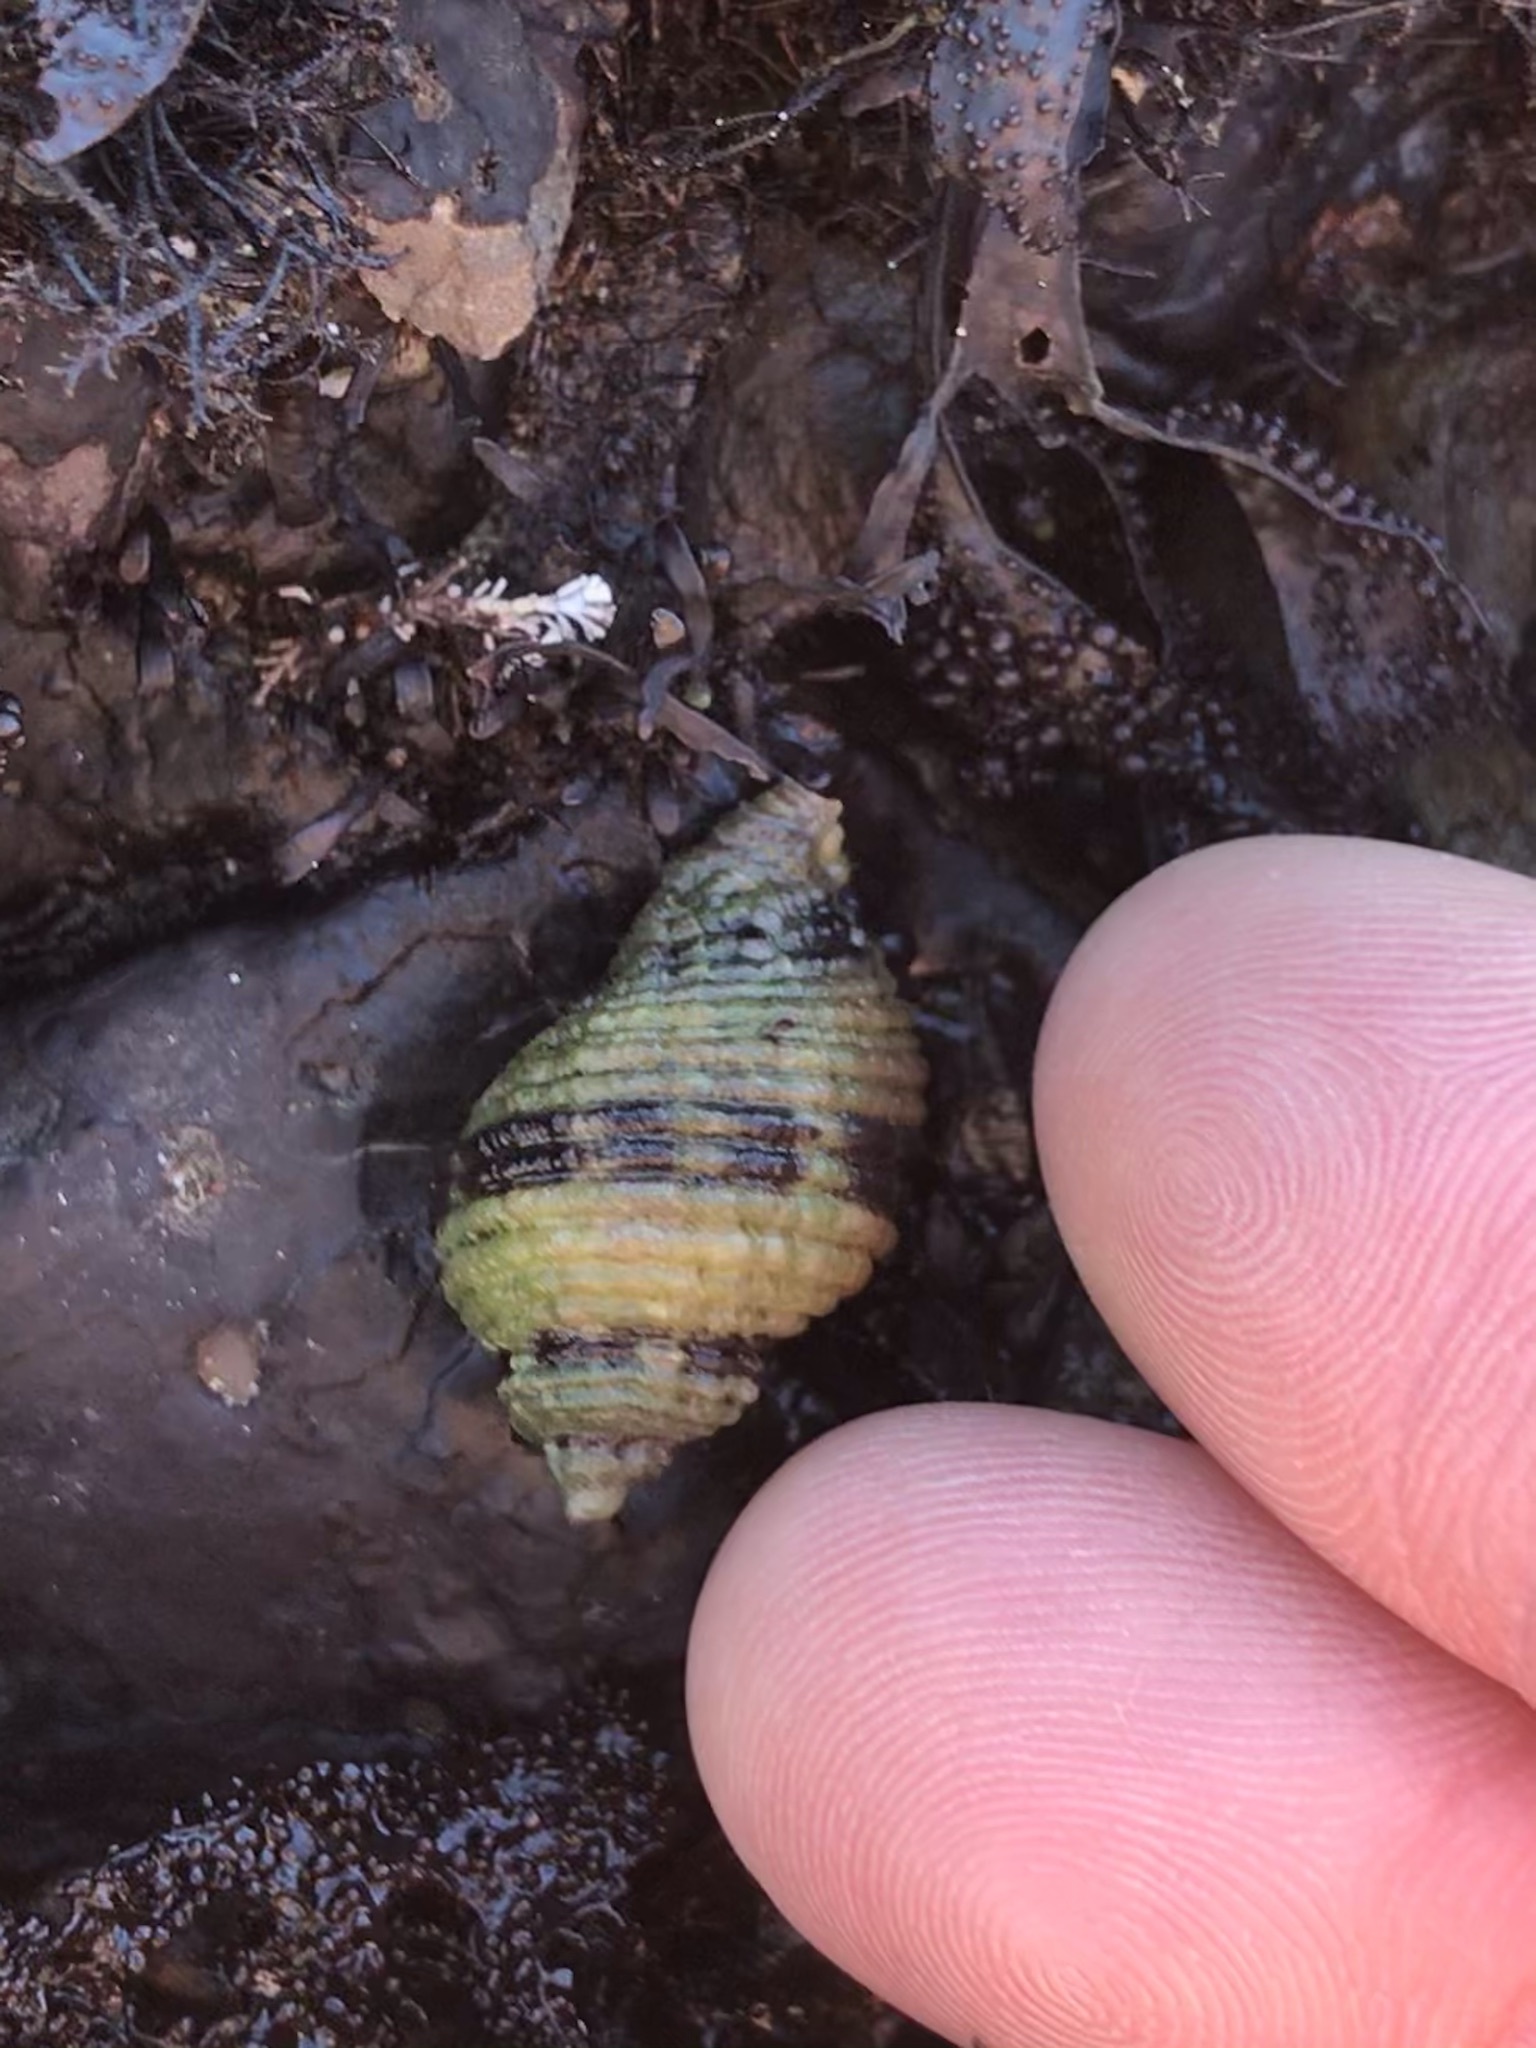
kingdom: Animalia
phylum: Mollusca
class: Gastropoda
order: Neogastropoda
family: Muricidae
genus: Paciocinebrina
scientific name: Paciocinebrina circumtexta
